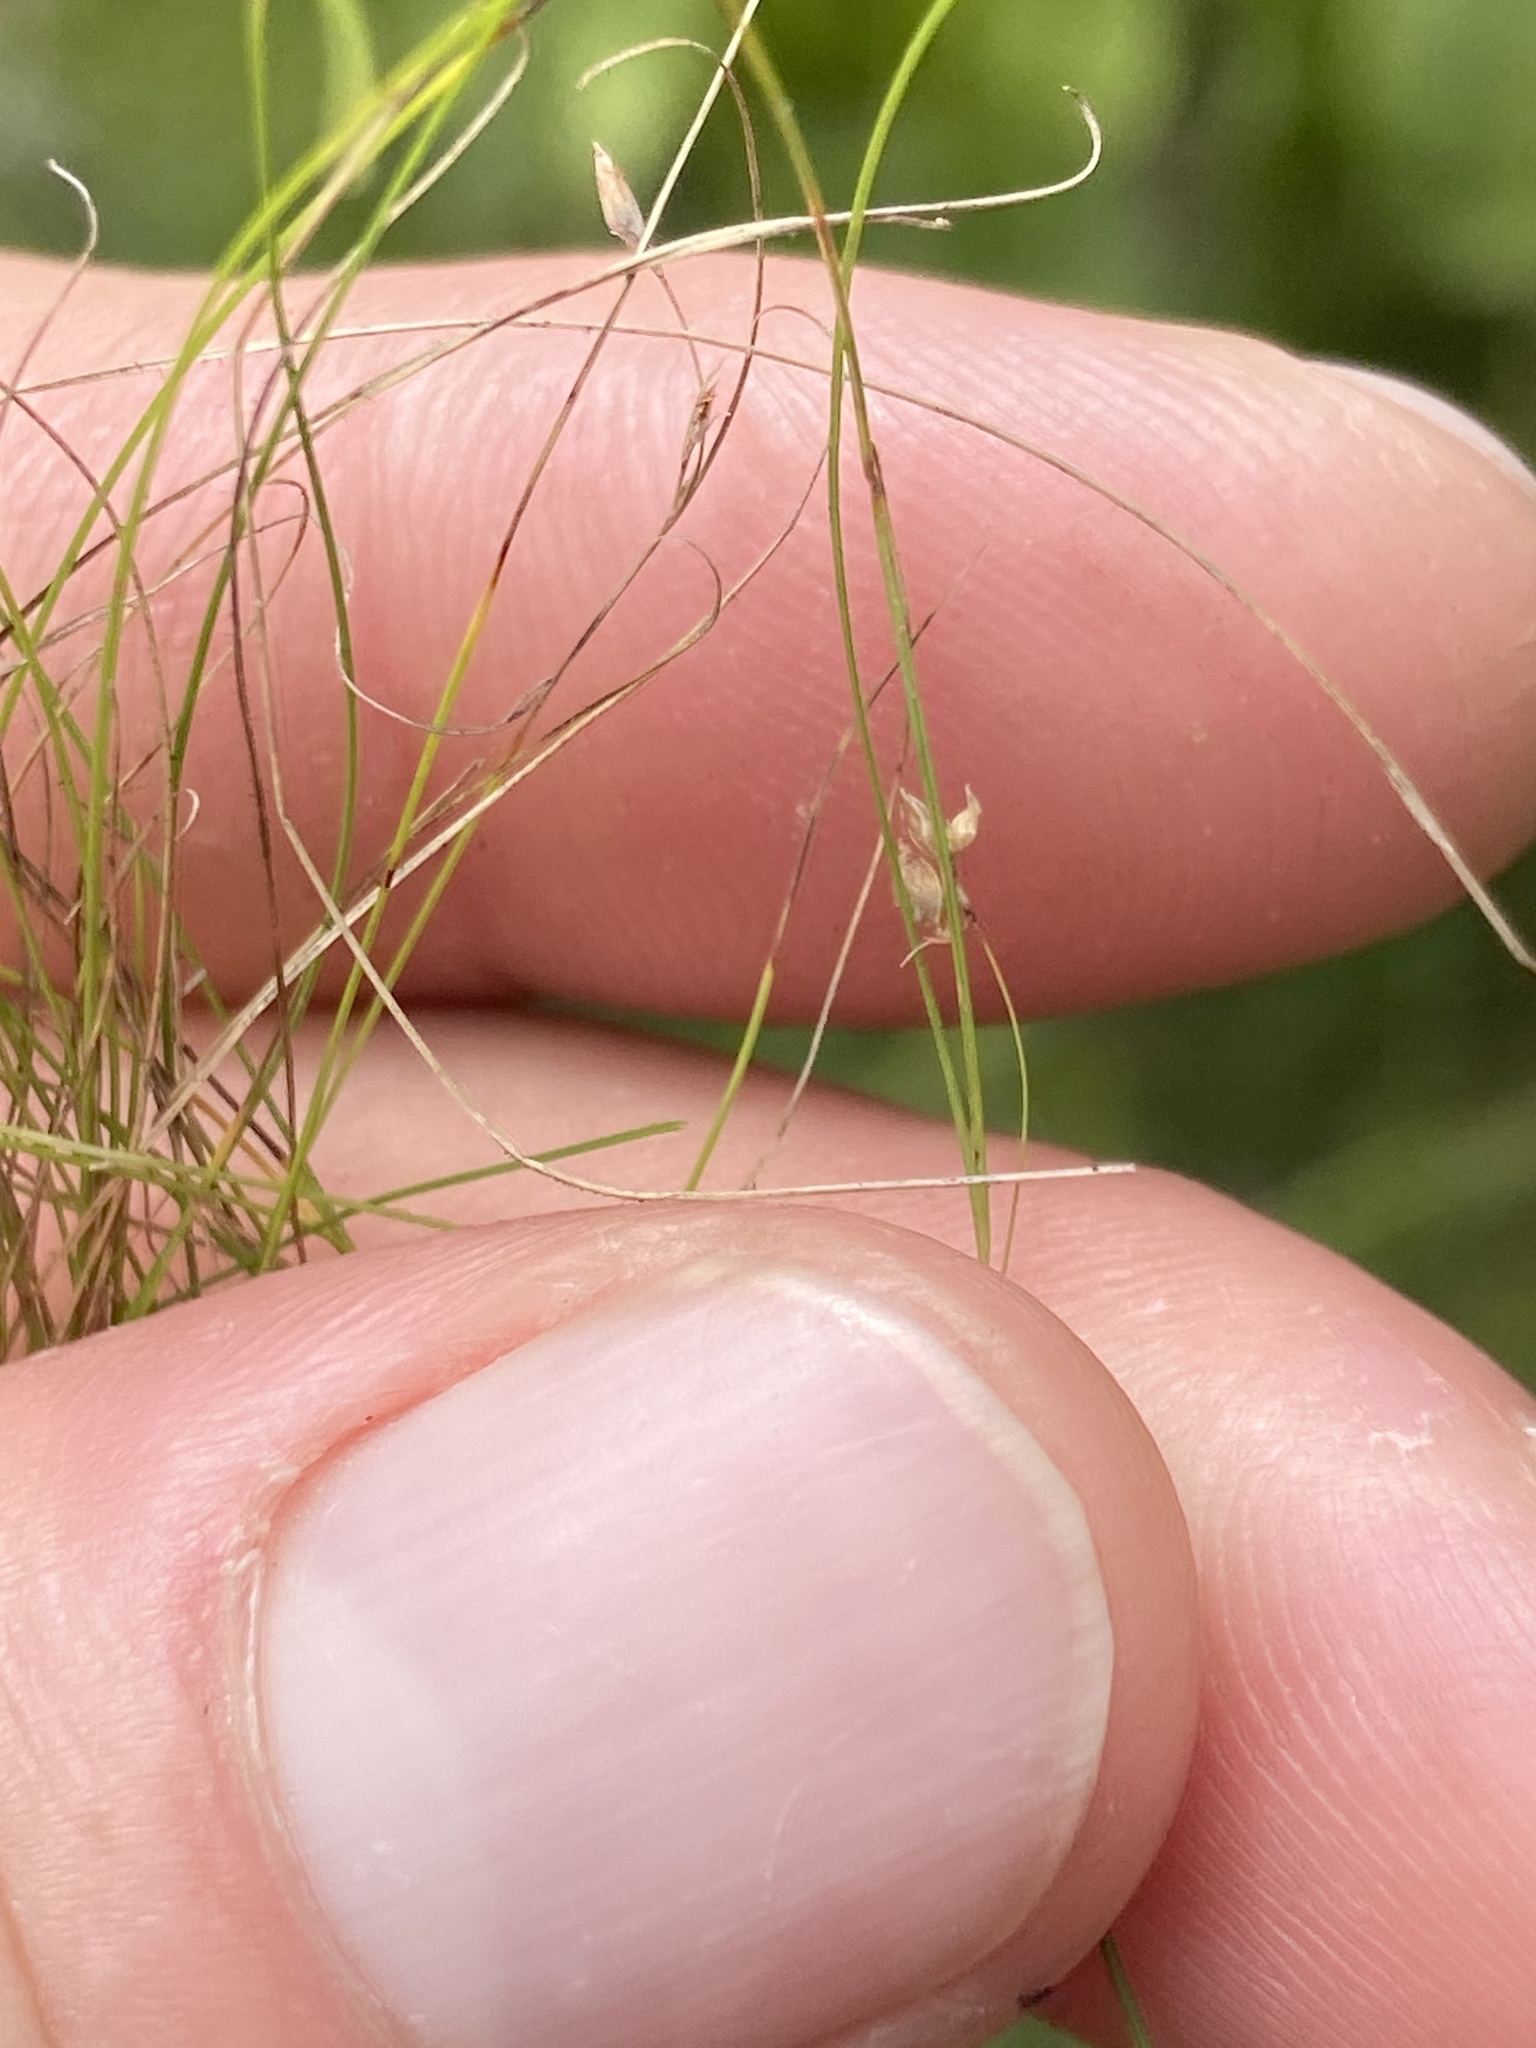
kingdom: Plantae
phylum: Tracheophyta
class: Liliopsida
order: Poales
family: Cyperaceae
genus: Rhynchospora
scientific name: Rhynchospora thornei
